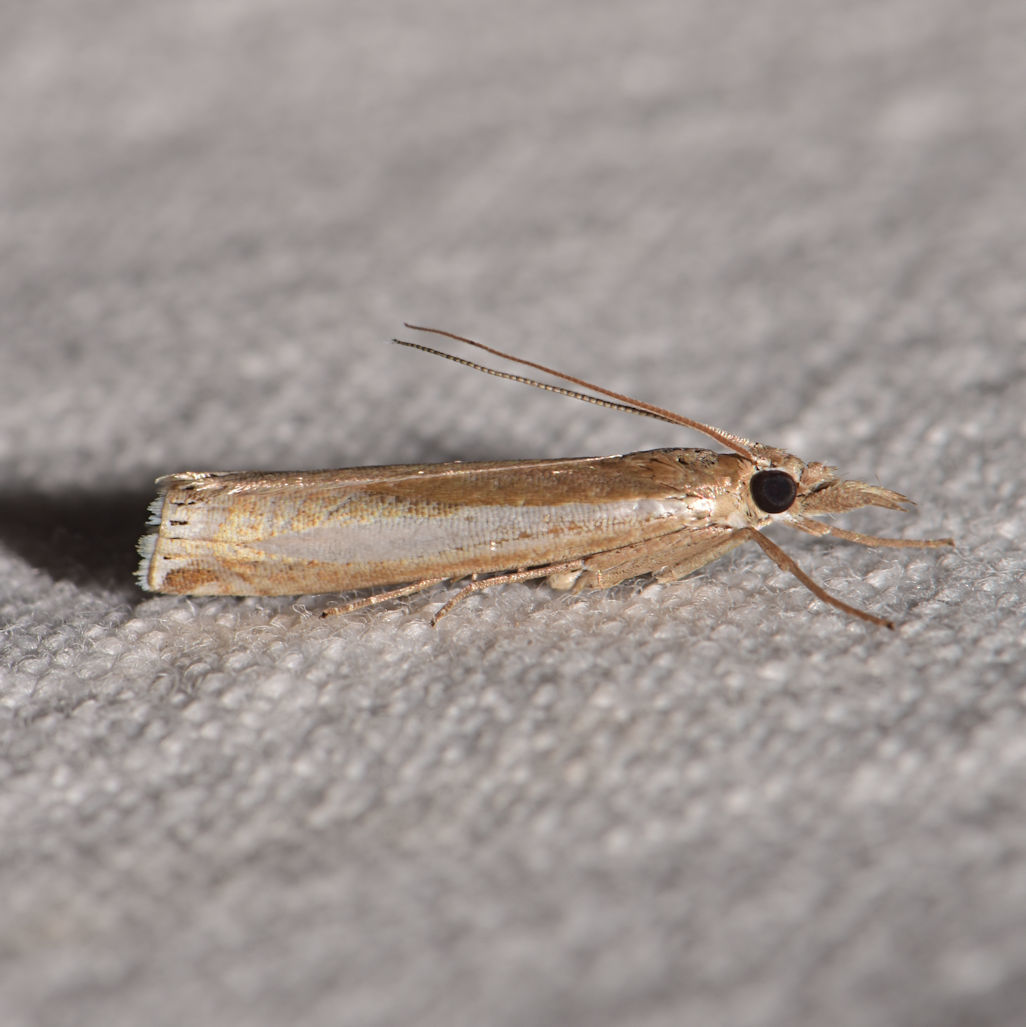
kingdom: Animalia
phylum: Arthropoda
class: Insecta
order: Lepidoptera
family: Crambidae
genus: Crambus
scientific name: Crambus praefectellus
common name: Common grass-veneer
